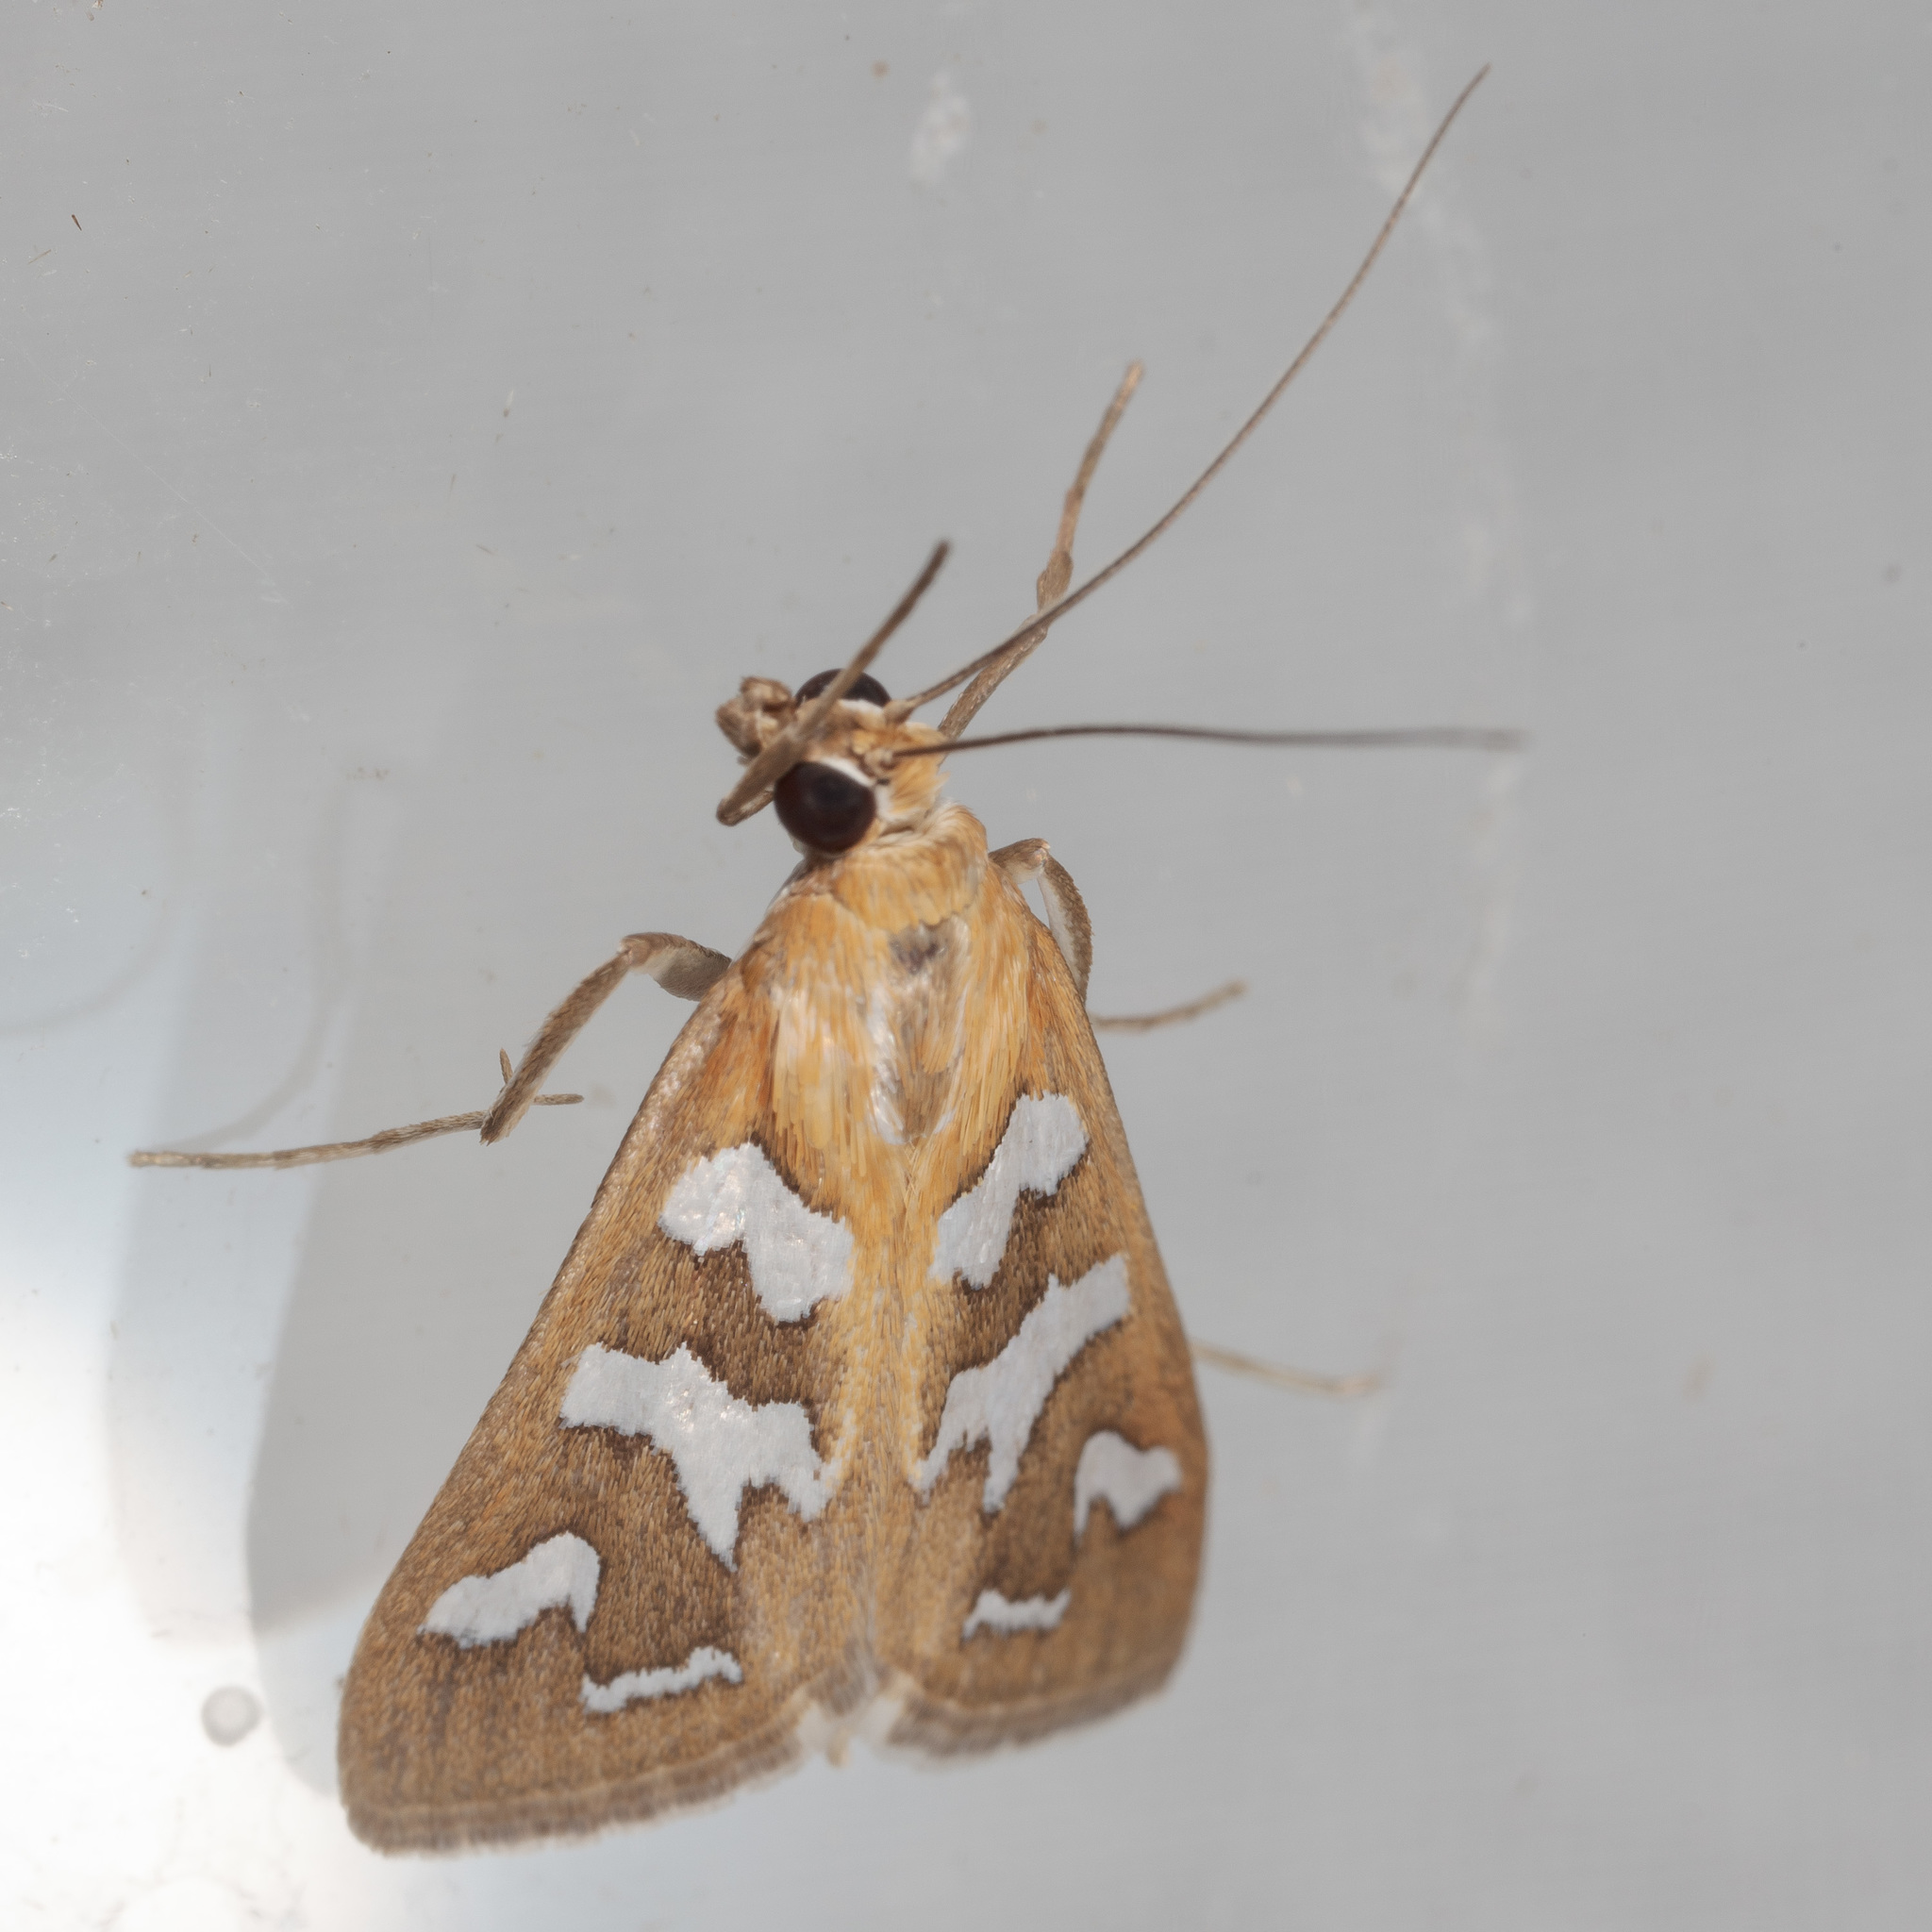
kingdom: Animalia
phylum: Arthropoda
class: Insecta
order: Lepidoptera
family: Crambidae
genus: Diastictis
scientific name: Diastictis fracturalis
